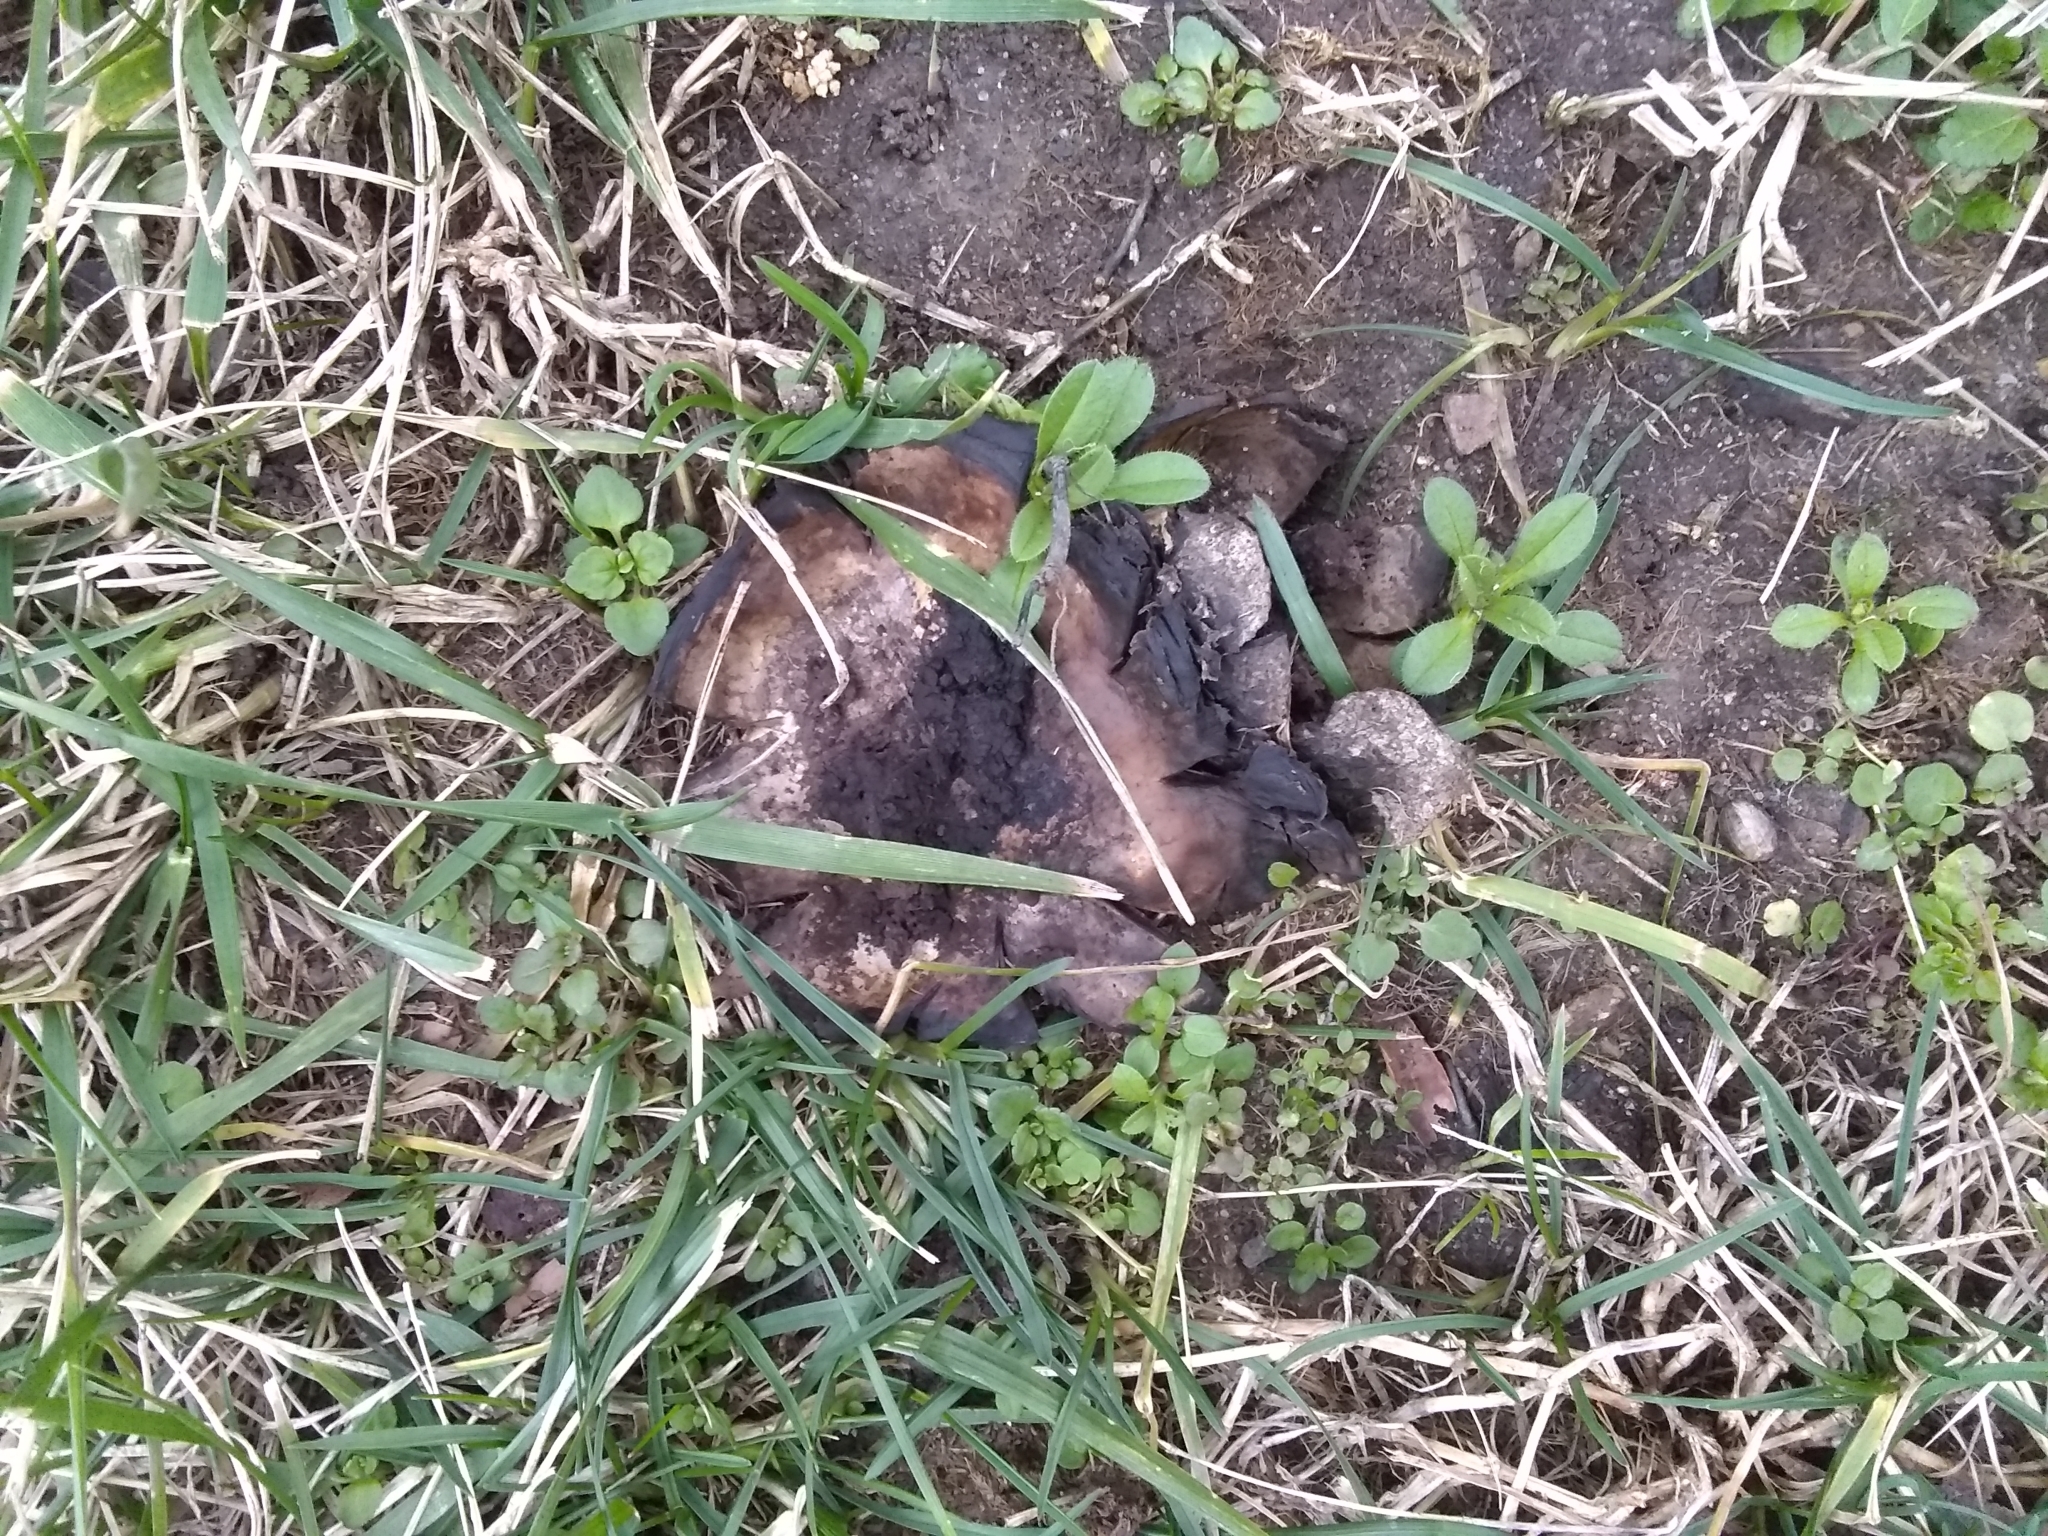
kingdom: Fungi
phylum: Basidiomycota
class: Agaricomycetes
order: Boletales
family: Sclerodermataceae
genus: Scleroderma
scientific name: Scleroderma polyrhizum
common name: Many-rooted earthball
